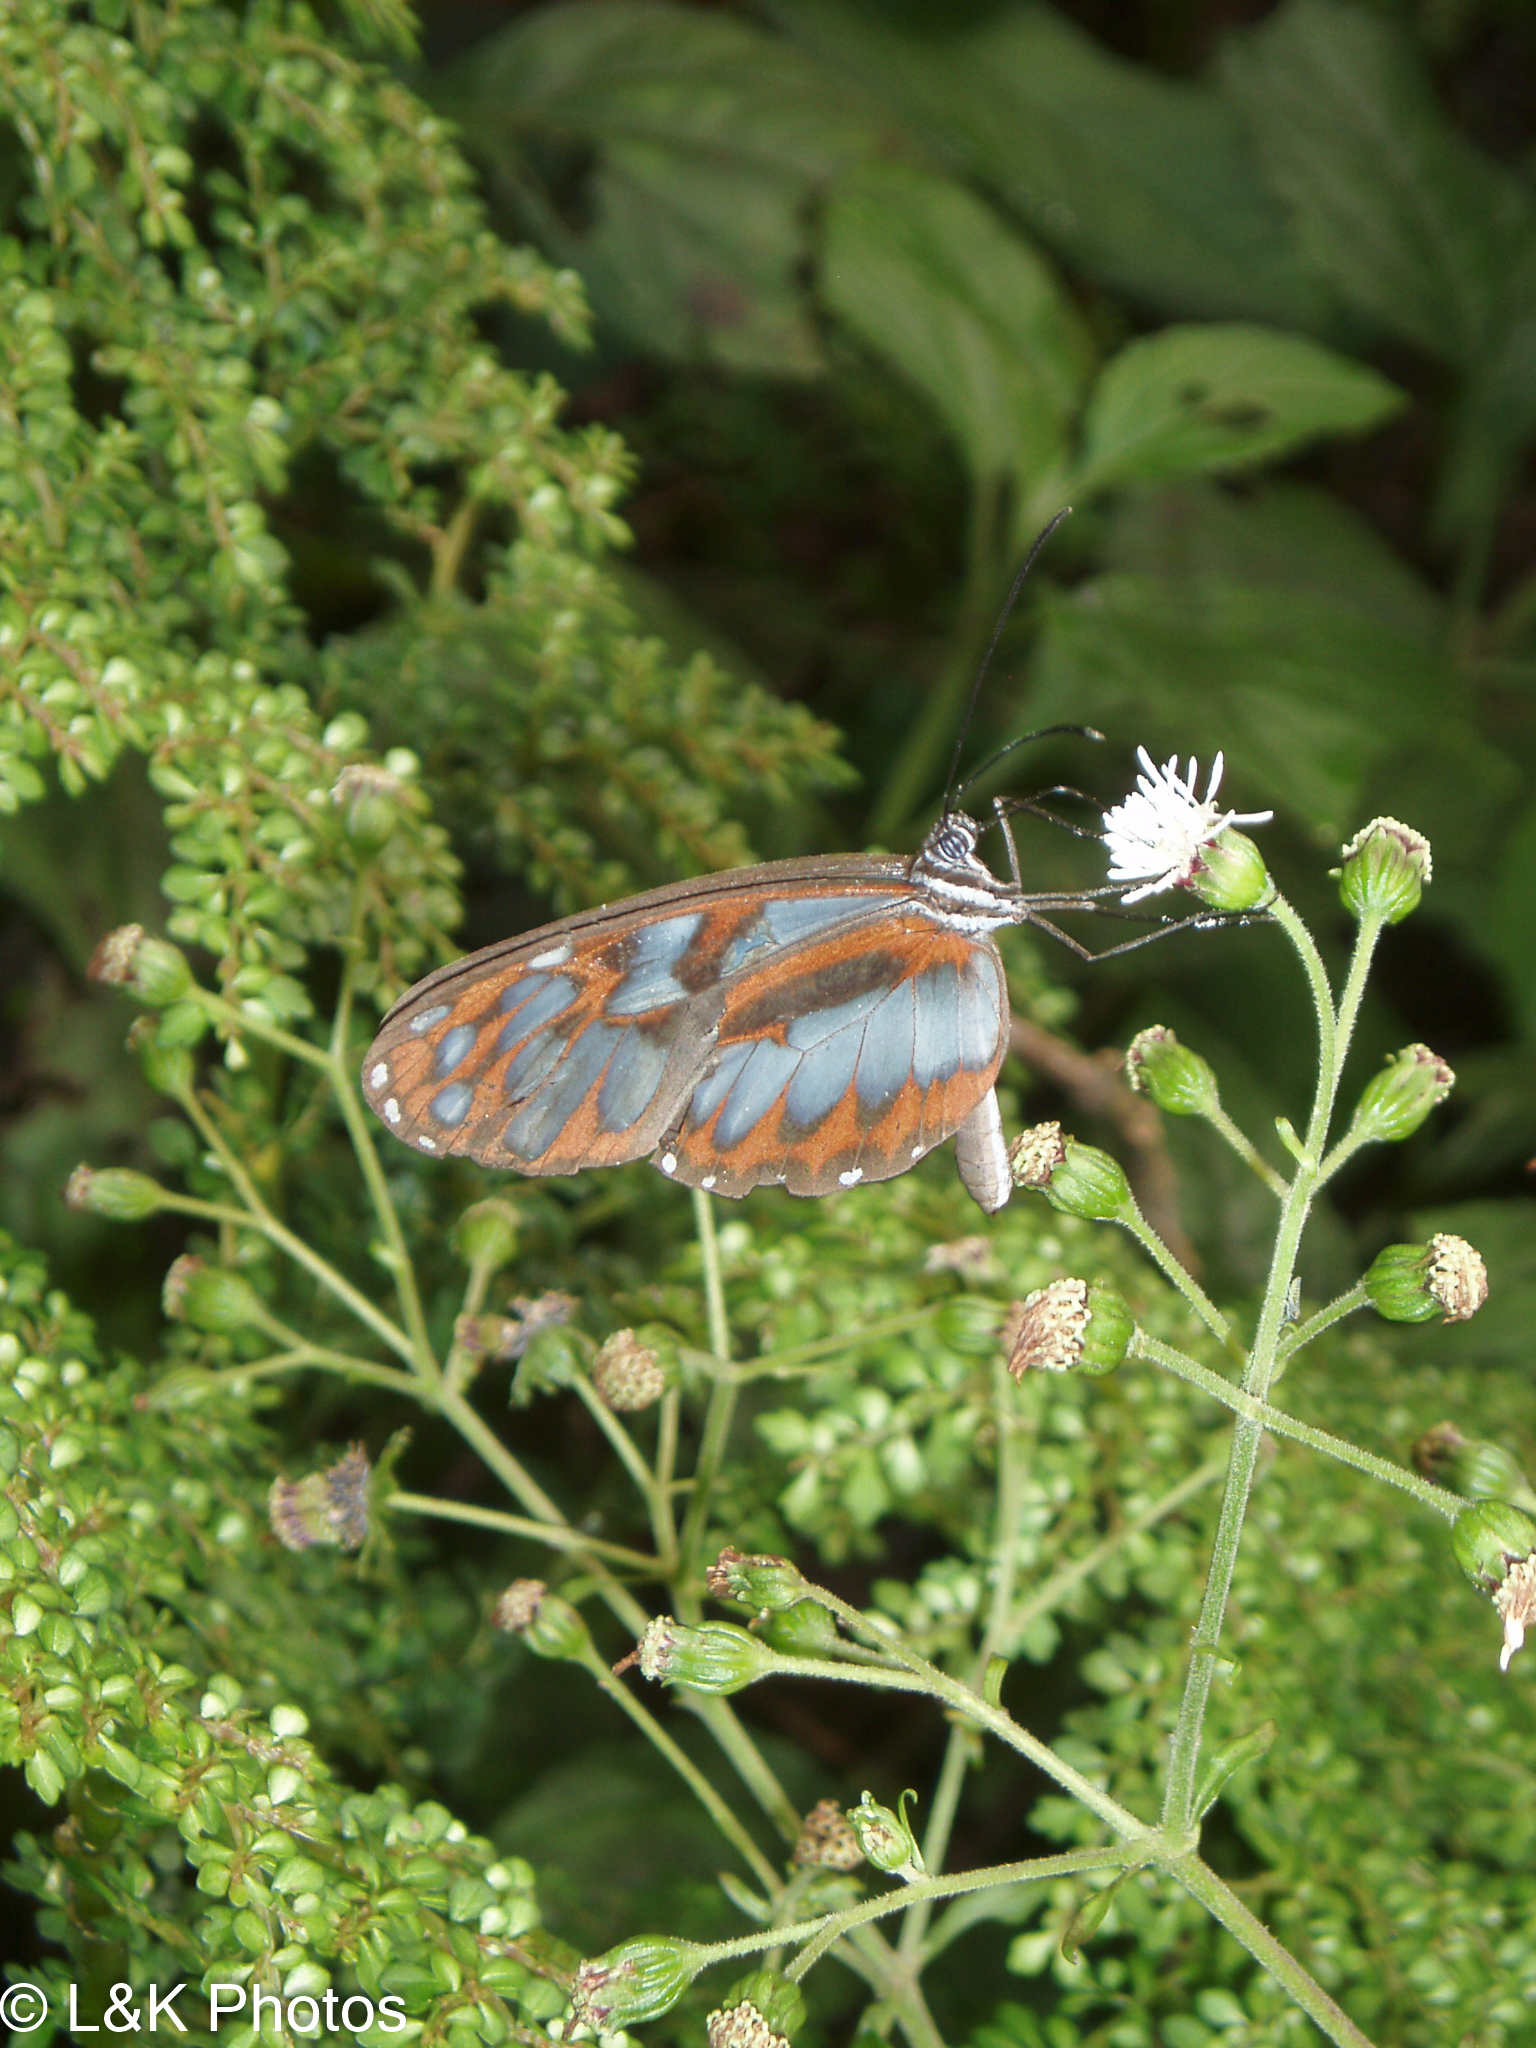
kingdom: Animalia
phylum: Arthropoda
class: Insecta
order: Lepidoptera
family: Nymphalidae
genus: Oleria
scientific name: Oleria cyrene
